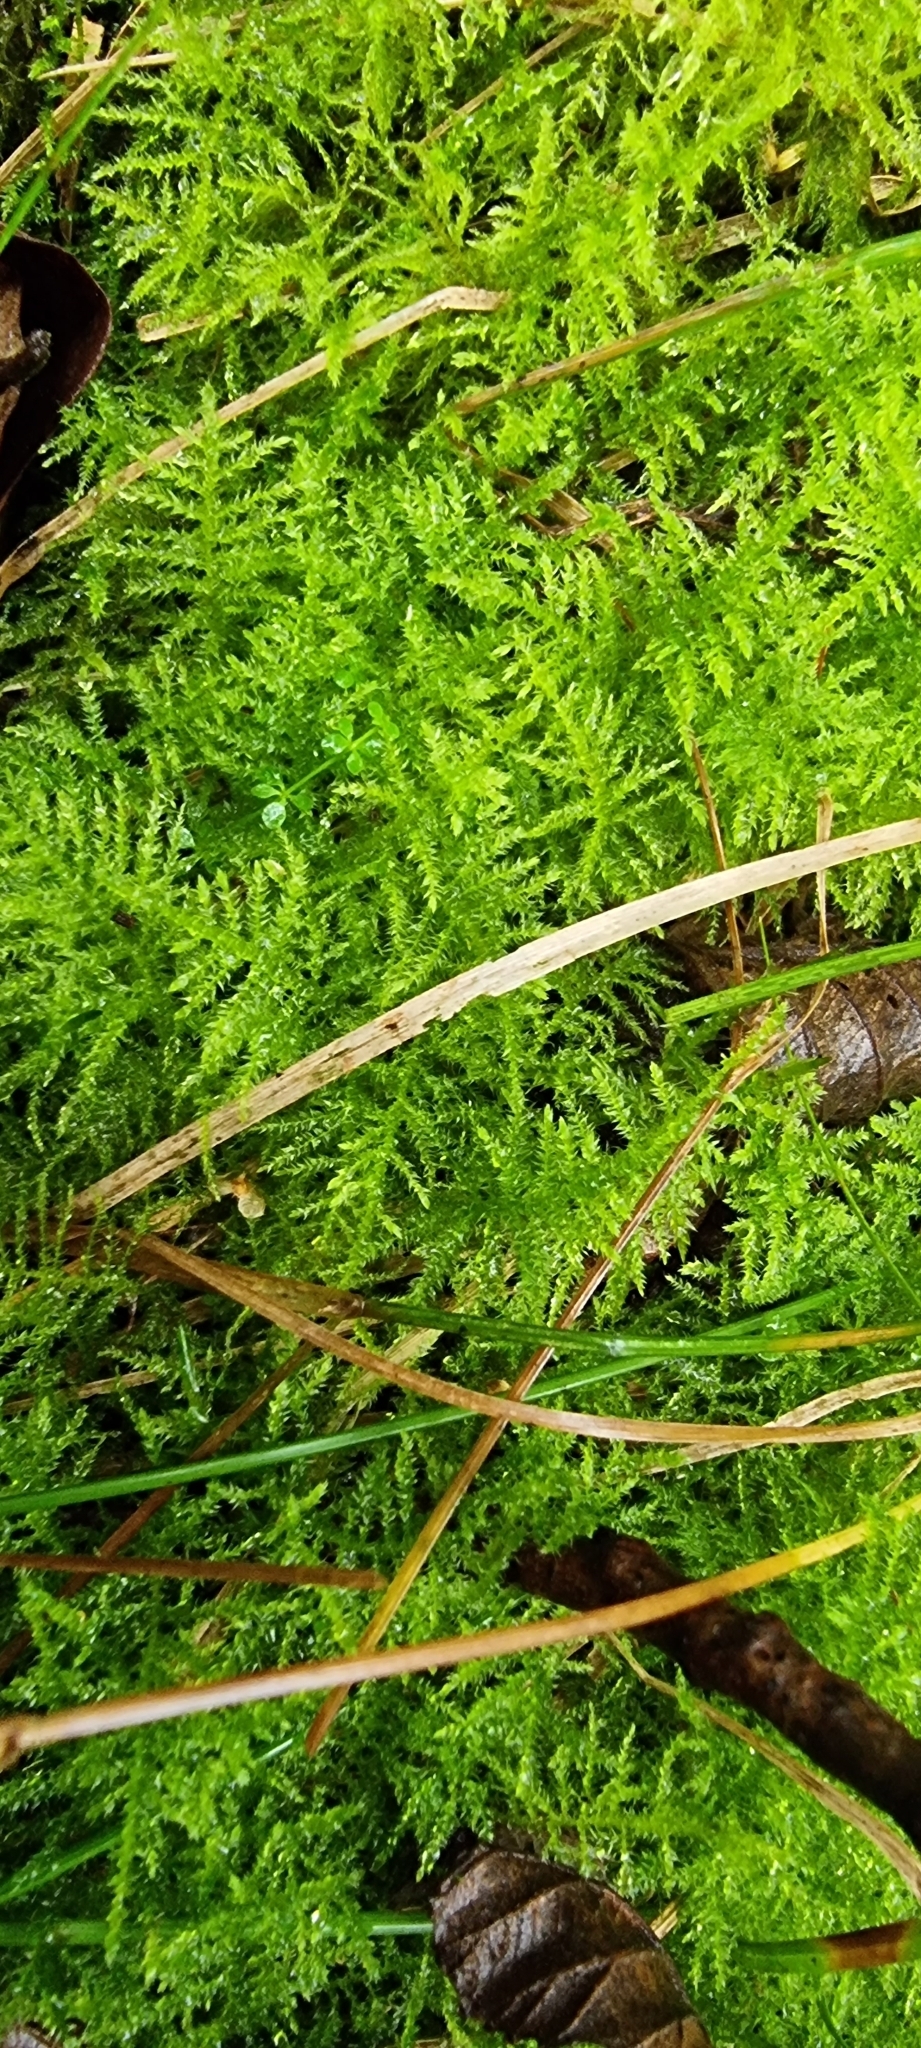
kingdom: Plantae
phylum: Bryophyta
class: Bryopsida
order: Hypnales
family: Brachytheciaceae
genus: Kindbergia
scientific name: Kindbergia praelonga
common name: Slender beaked moss
